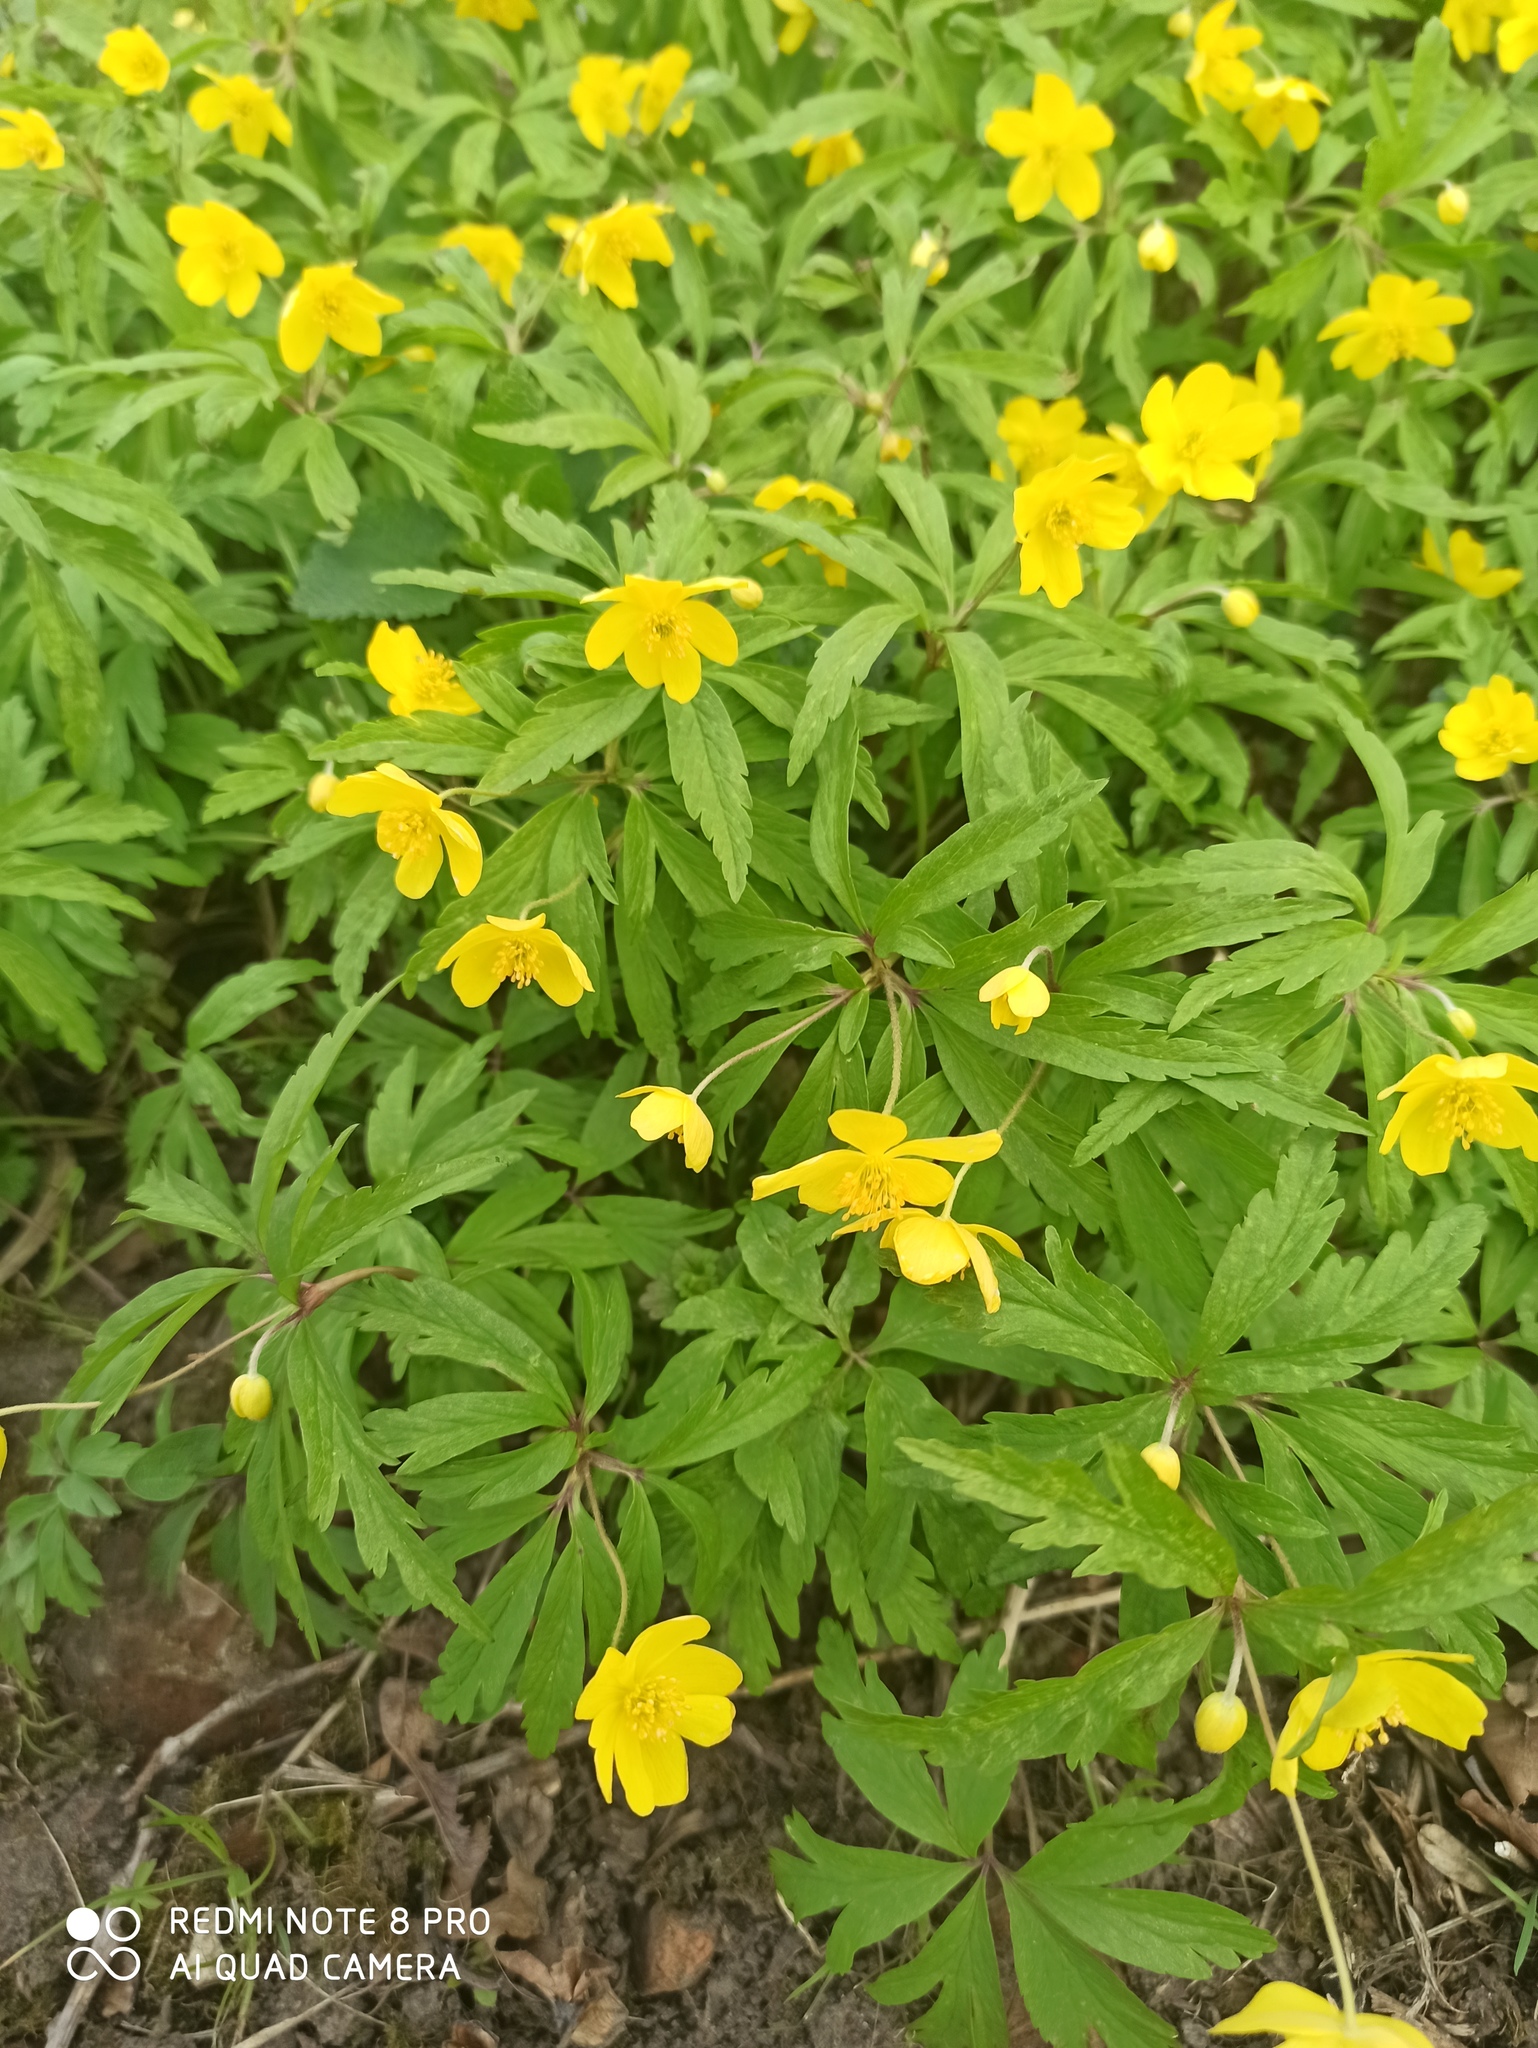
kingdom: Plantae
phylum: Tracheophyta
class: Magnoliopsida
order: Ranunculales
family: Ranunculaceae
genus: Anemone
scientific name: Anemone ranunculoides
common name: Yellow anemone
